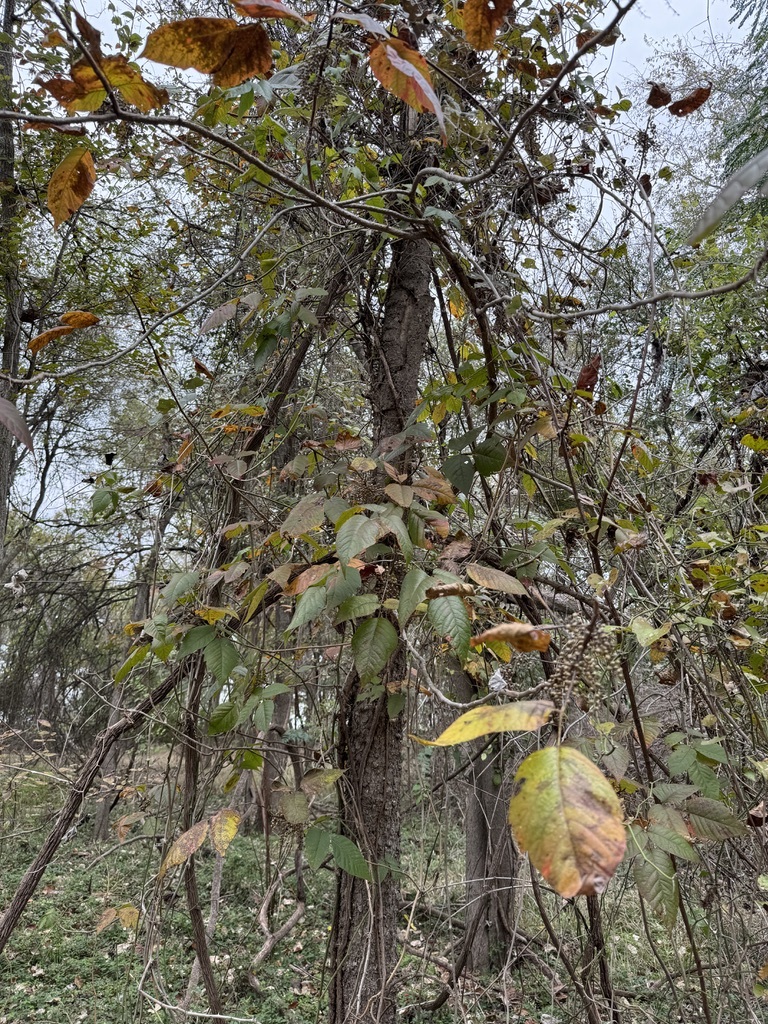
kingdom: Plantae
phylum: Tracheophyta
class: Magnoliopsida
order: Sapindales
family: Anacardiaceae
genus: Toxicodendron
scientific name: Toxicodendron radicans
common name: Poison ivy
